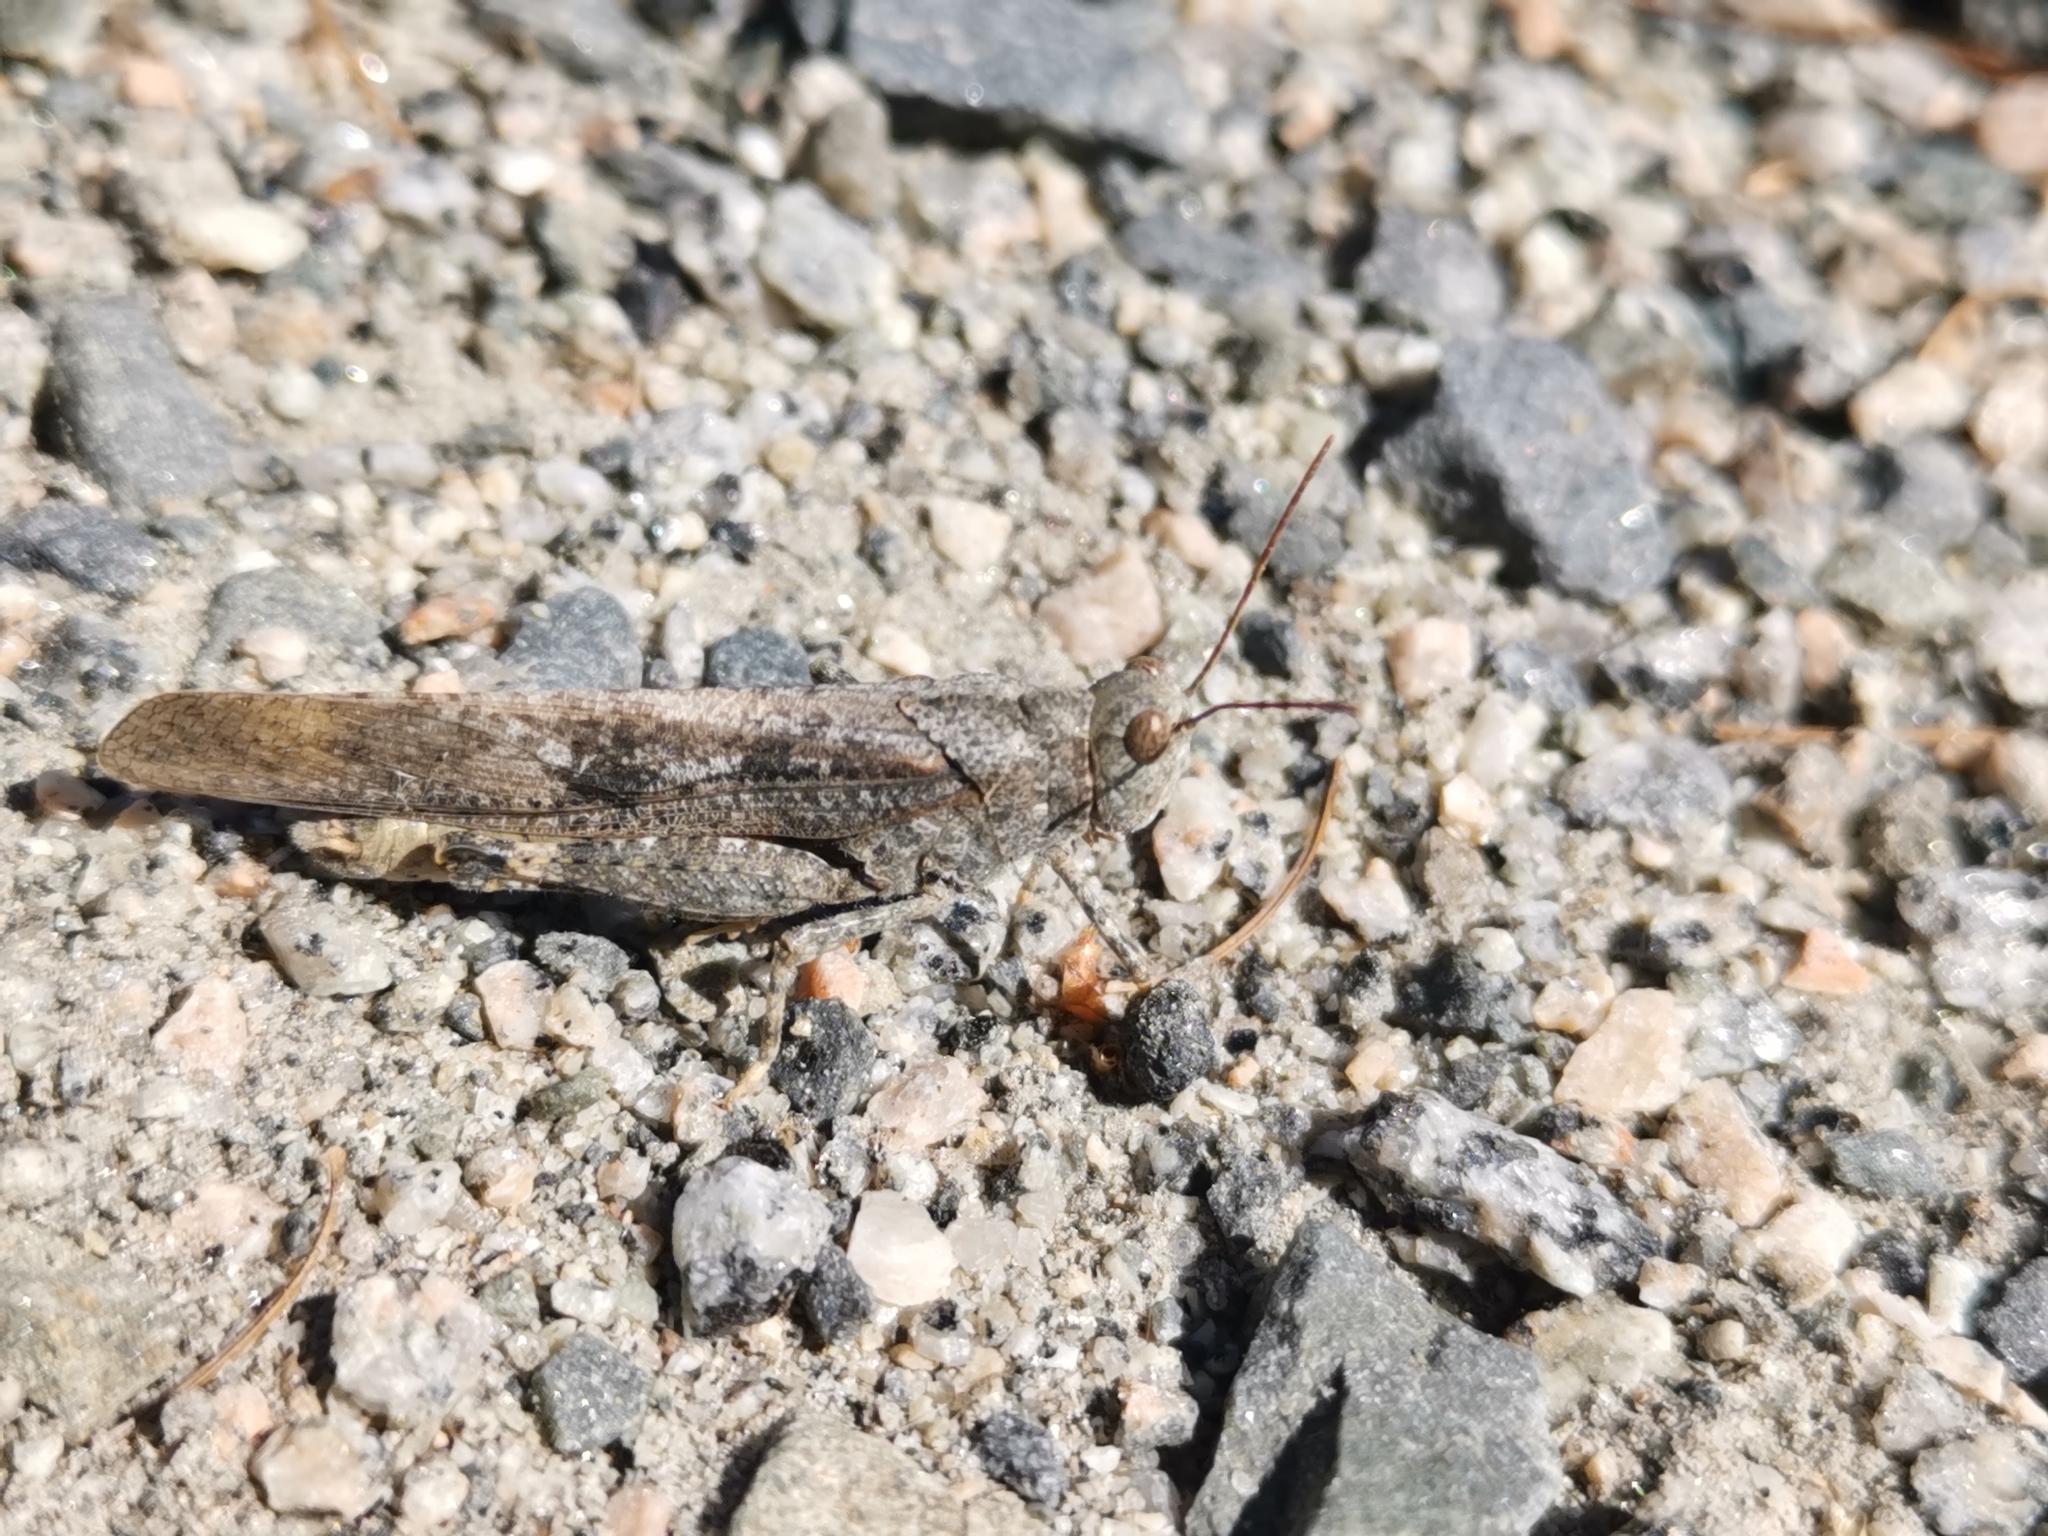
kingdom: Animalia
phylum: Arthropoda
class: Insecta
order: Orthoptera
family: Acrididae
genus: Dissosteira
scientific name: Dissosteira carolina
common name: Carolina grasshopper
